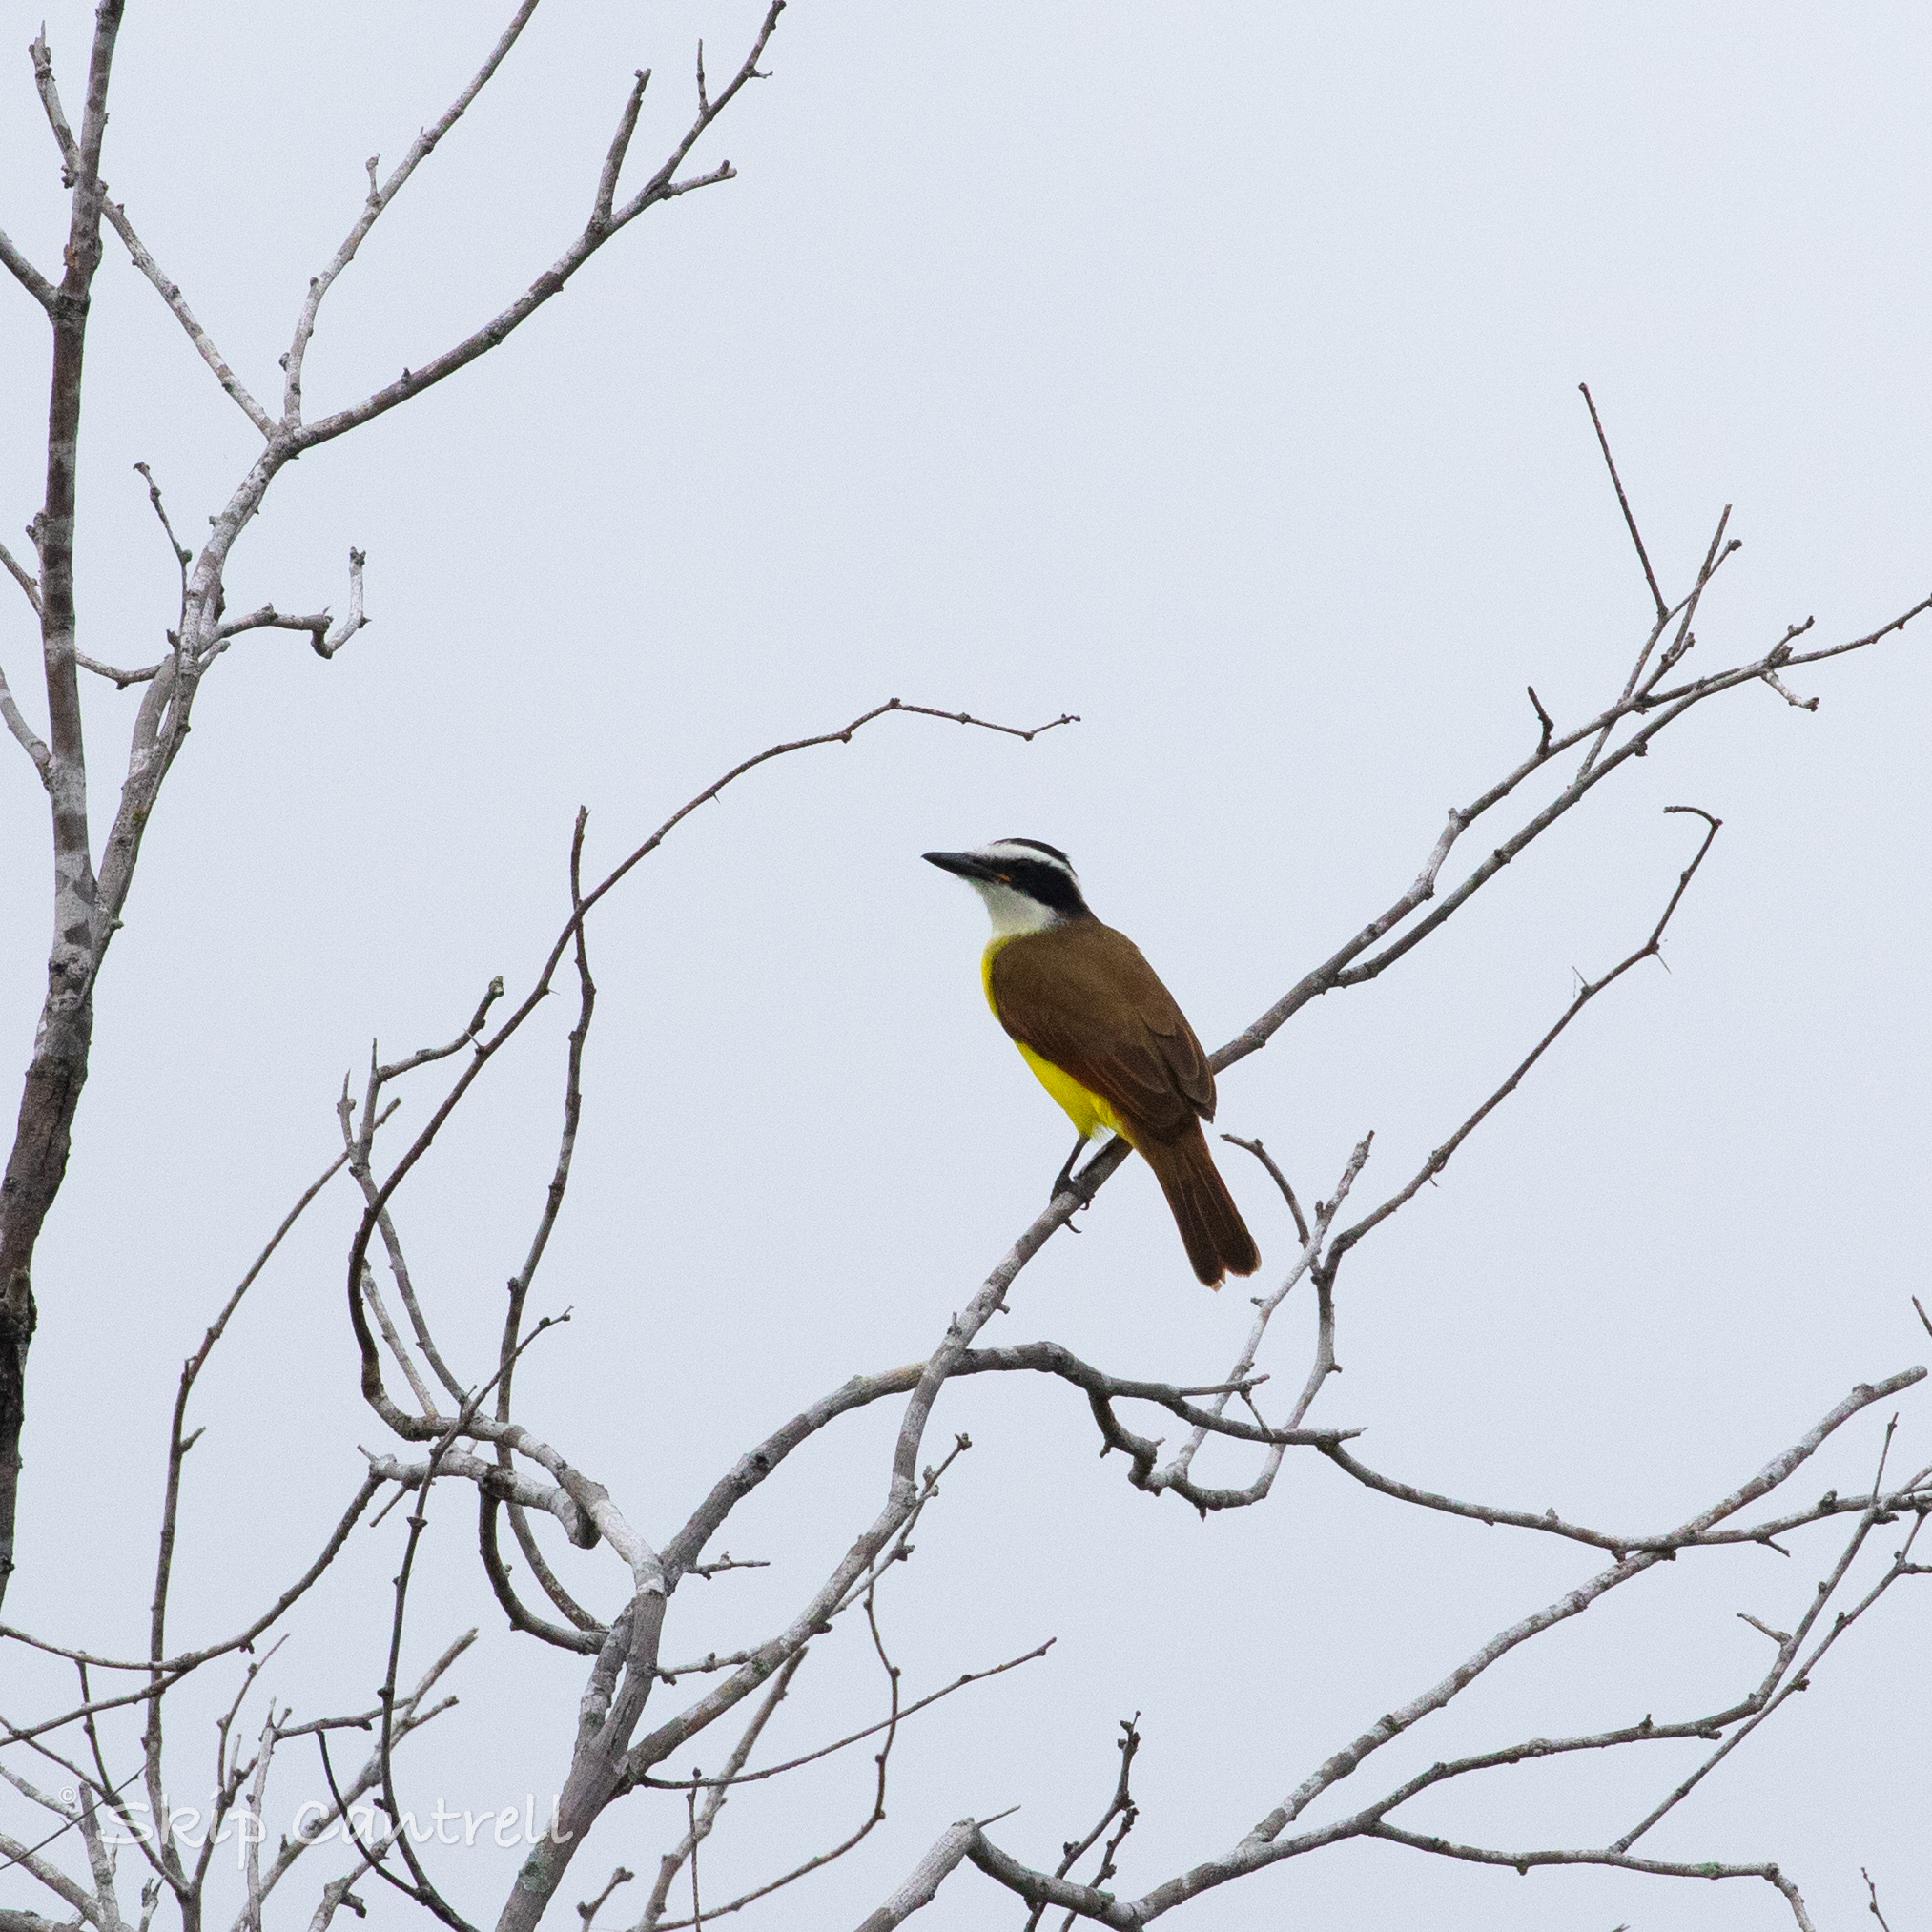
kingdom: Animalia
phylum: Chordata
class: Aves
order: Passeriformes
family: Tyrannidae
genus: Pitangus
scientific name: Pitangus sulphuratus
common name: Great kiskadee
